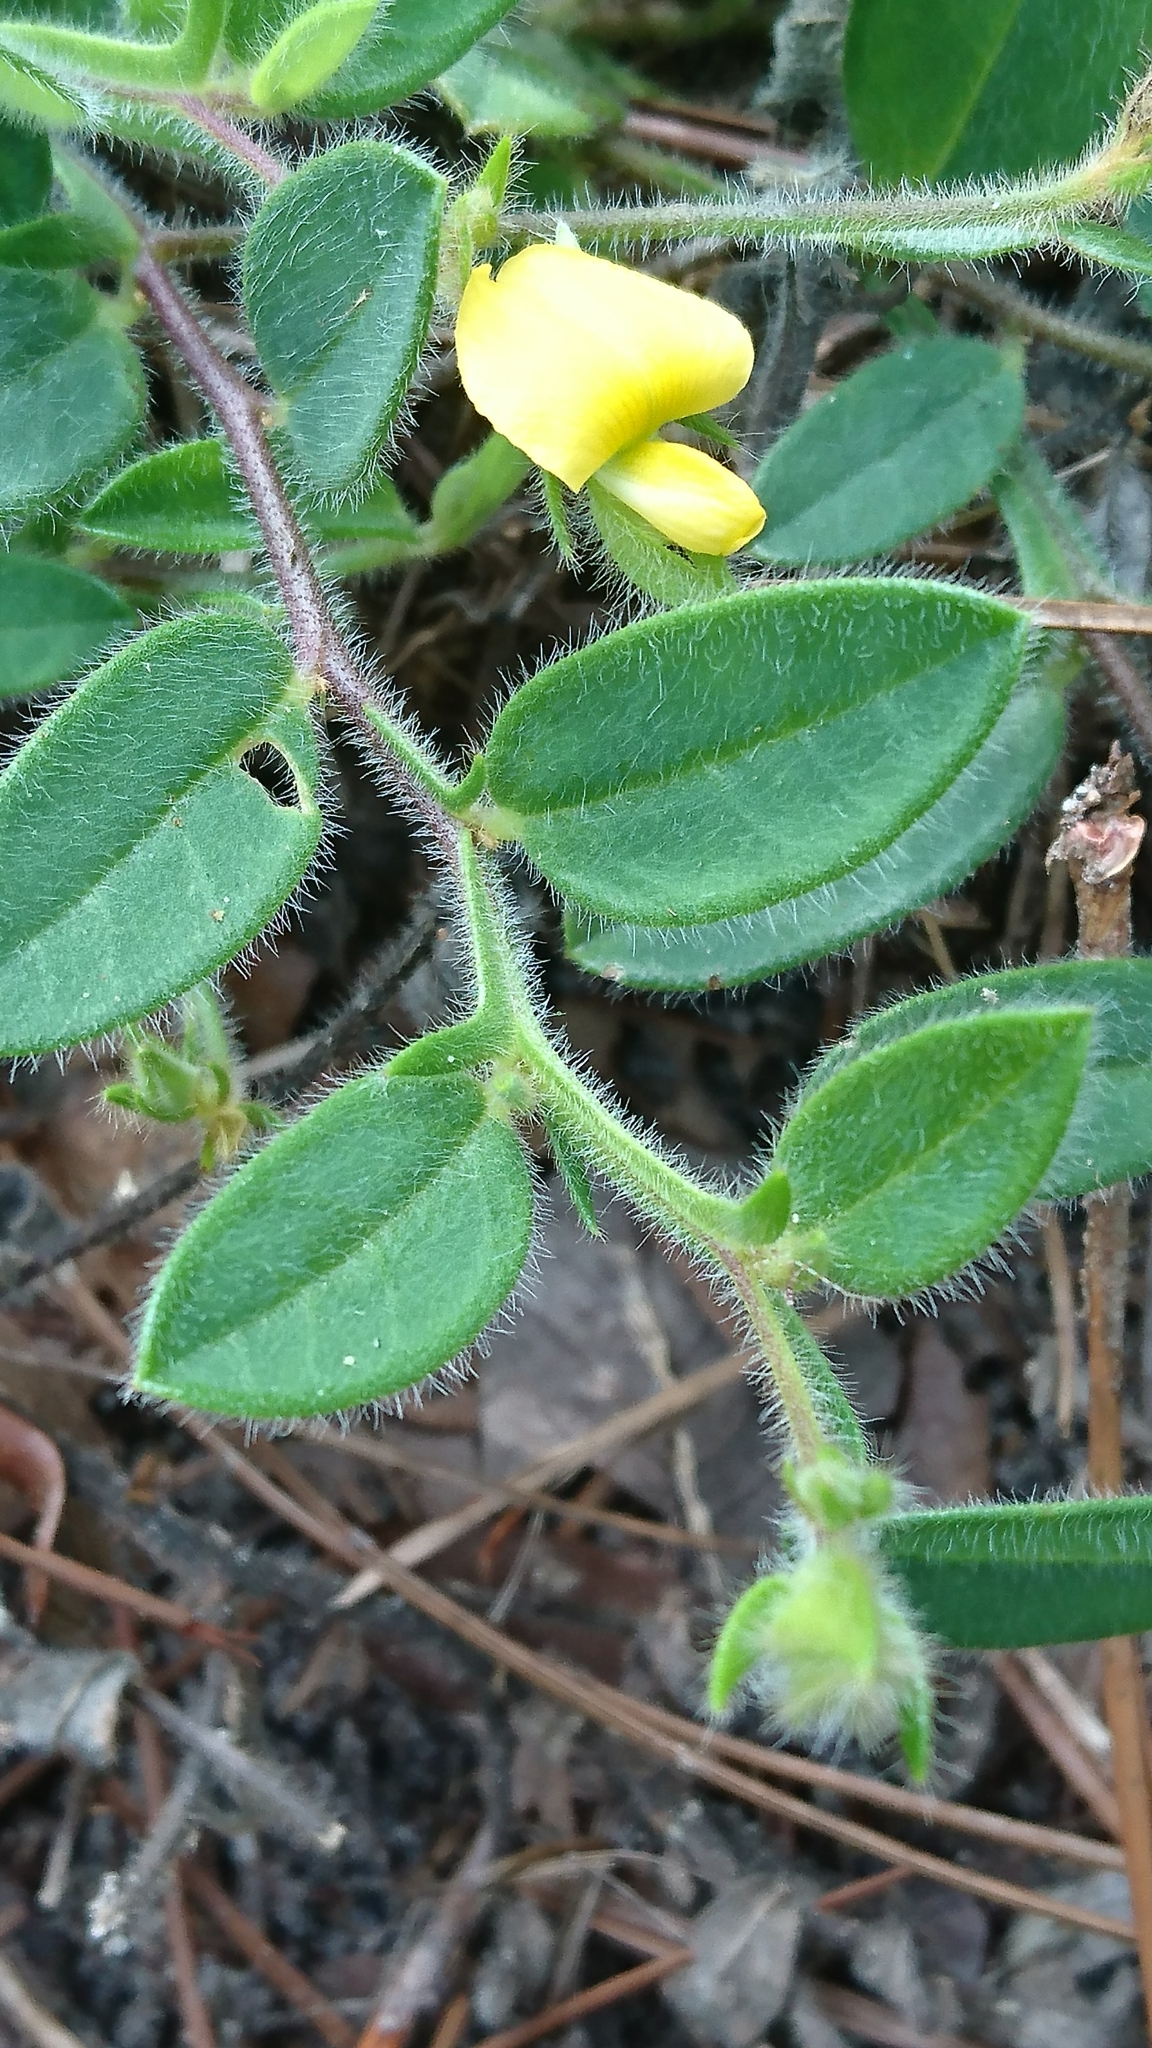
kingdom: Plantae
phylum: Tracheophyta
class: Magnoliopsida
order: Fabales
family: Fabaceae
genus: Crotalaria
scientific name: Crotalaria rotundifolia
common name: Prostrate rattlebox
